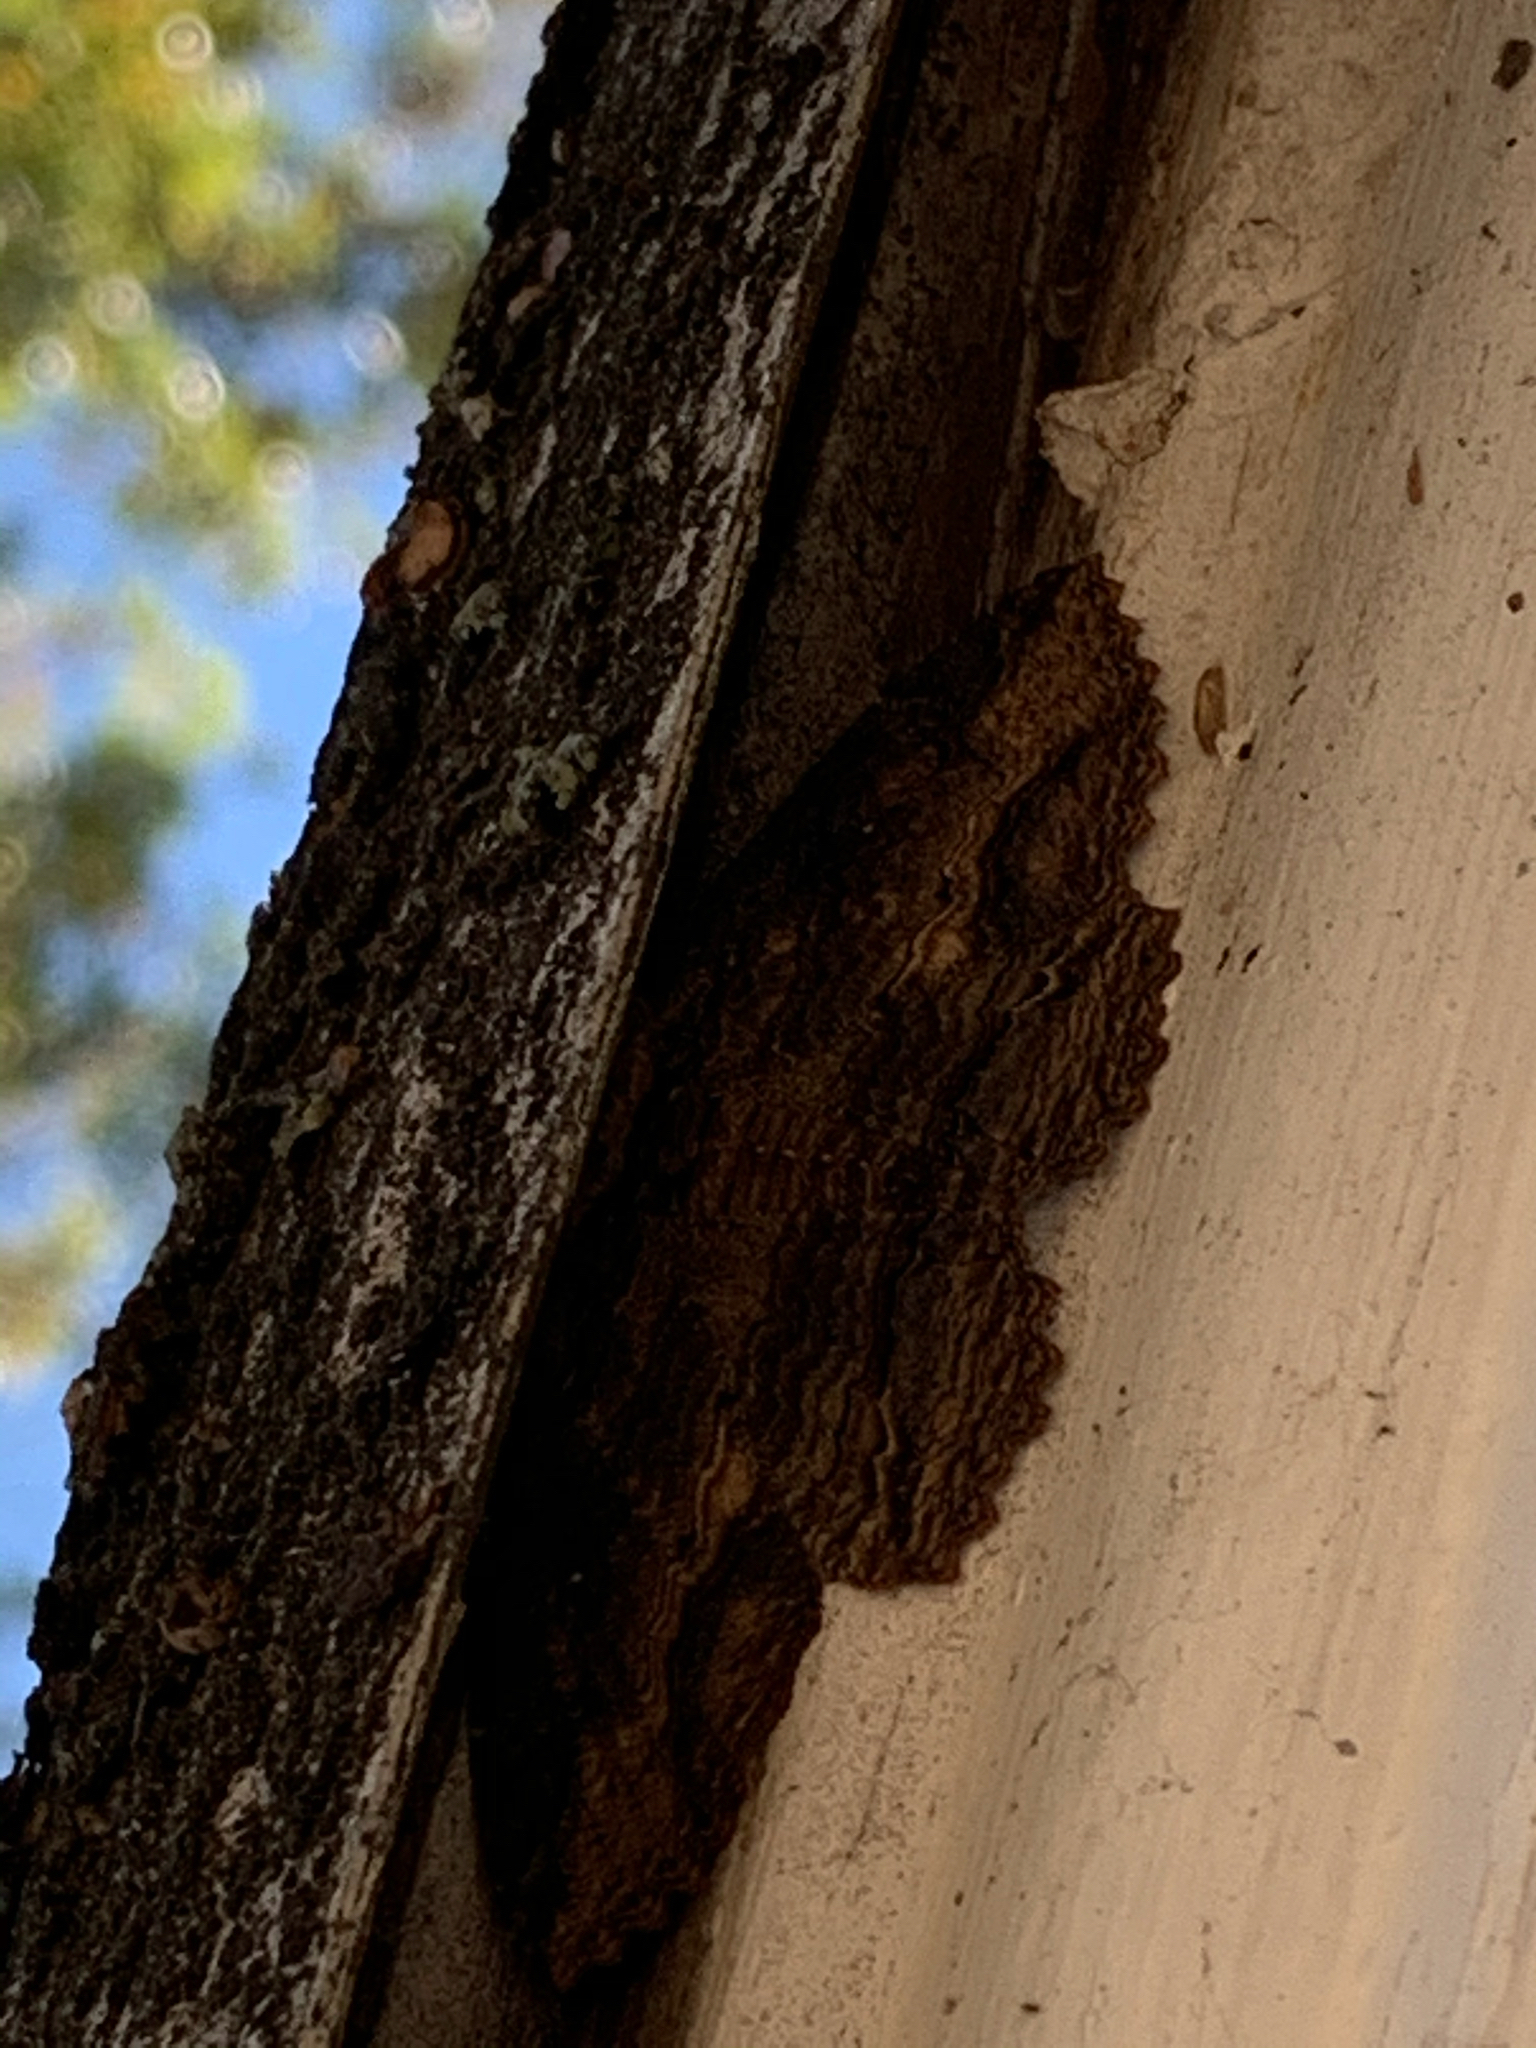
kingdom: Animalia
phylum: Arthropoda
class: Insecta
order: Lepidoptera
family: Erebidae
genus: Zale
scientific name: Zale lunata
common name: Lunate zale moth
